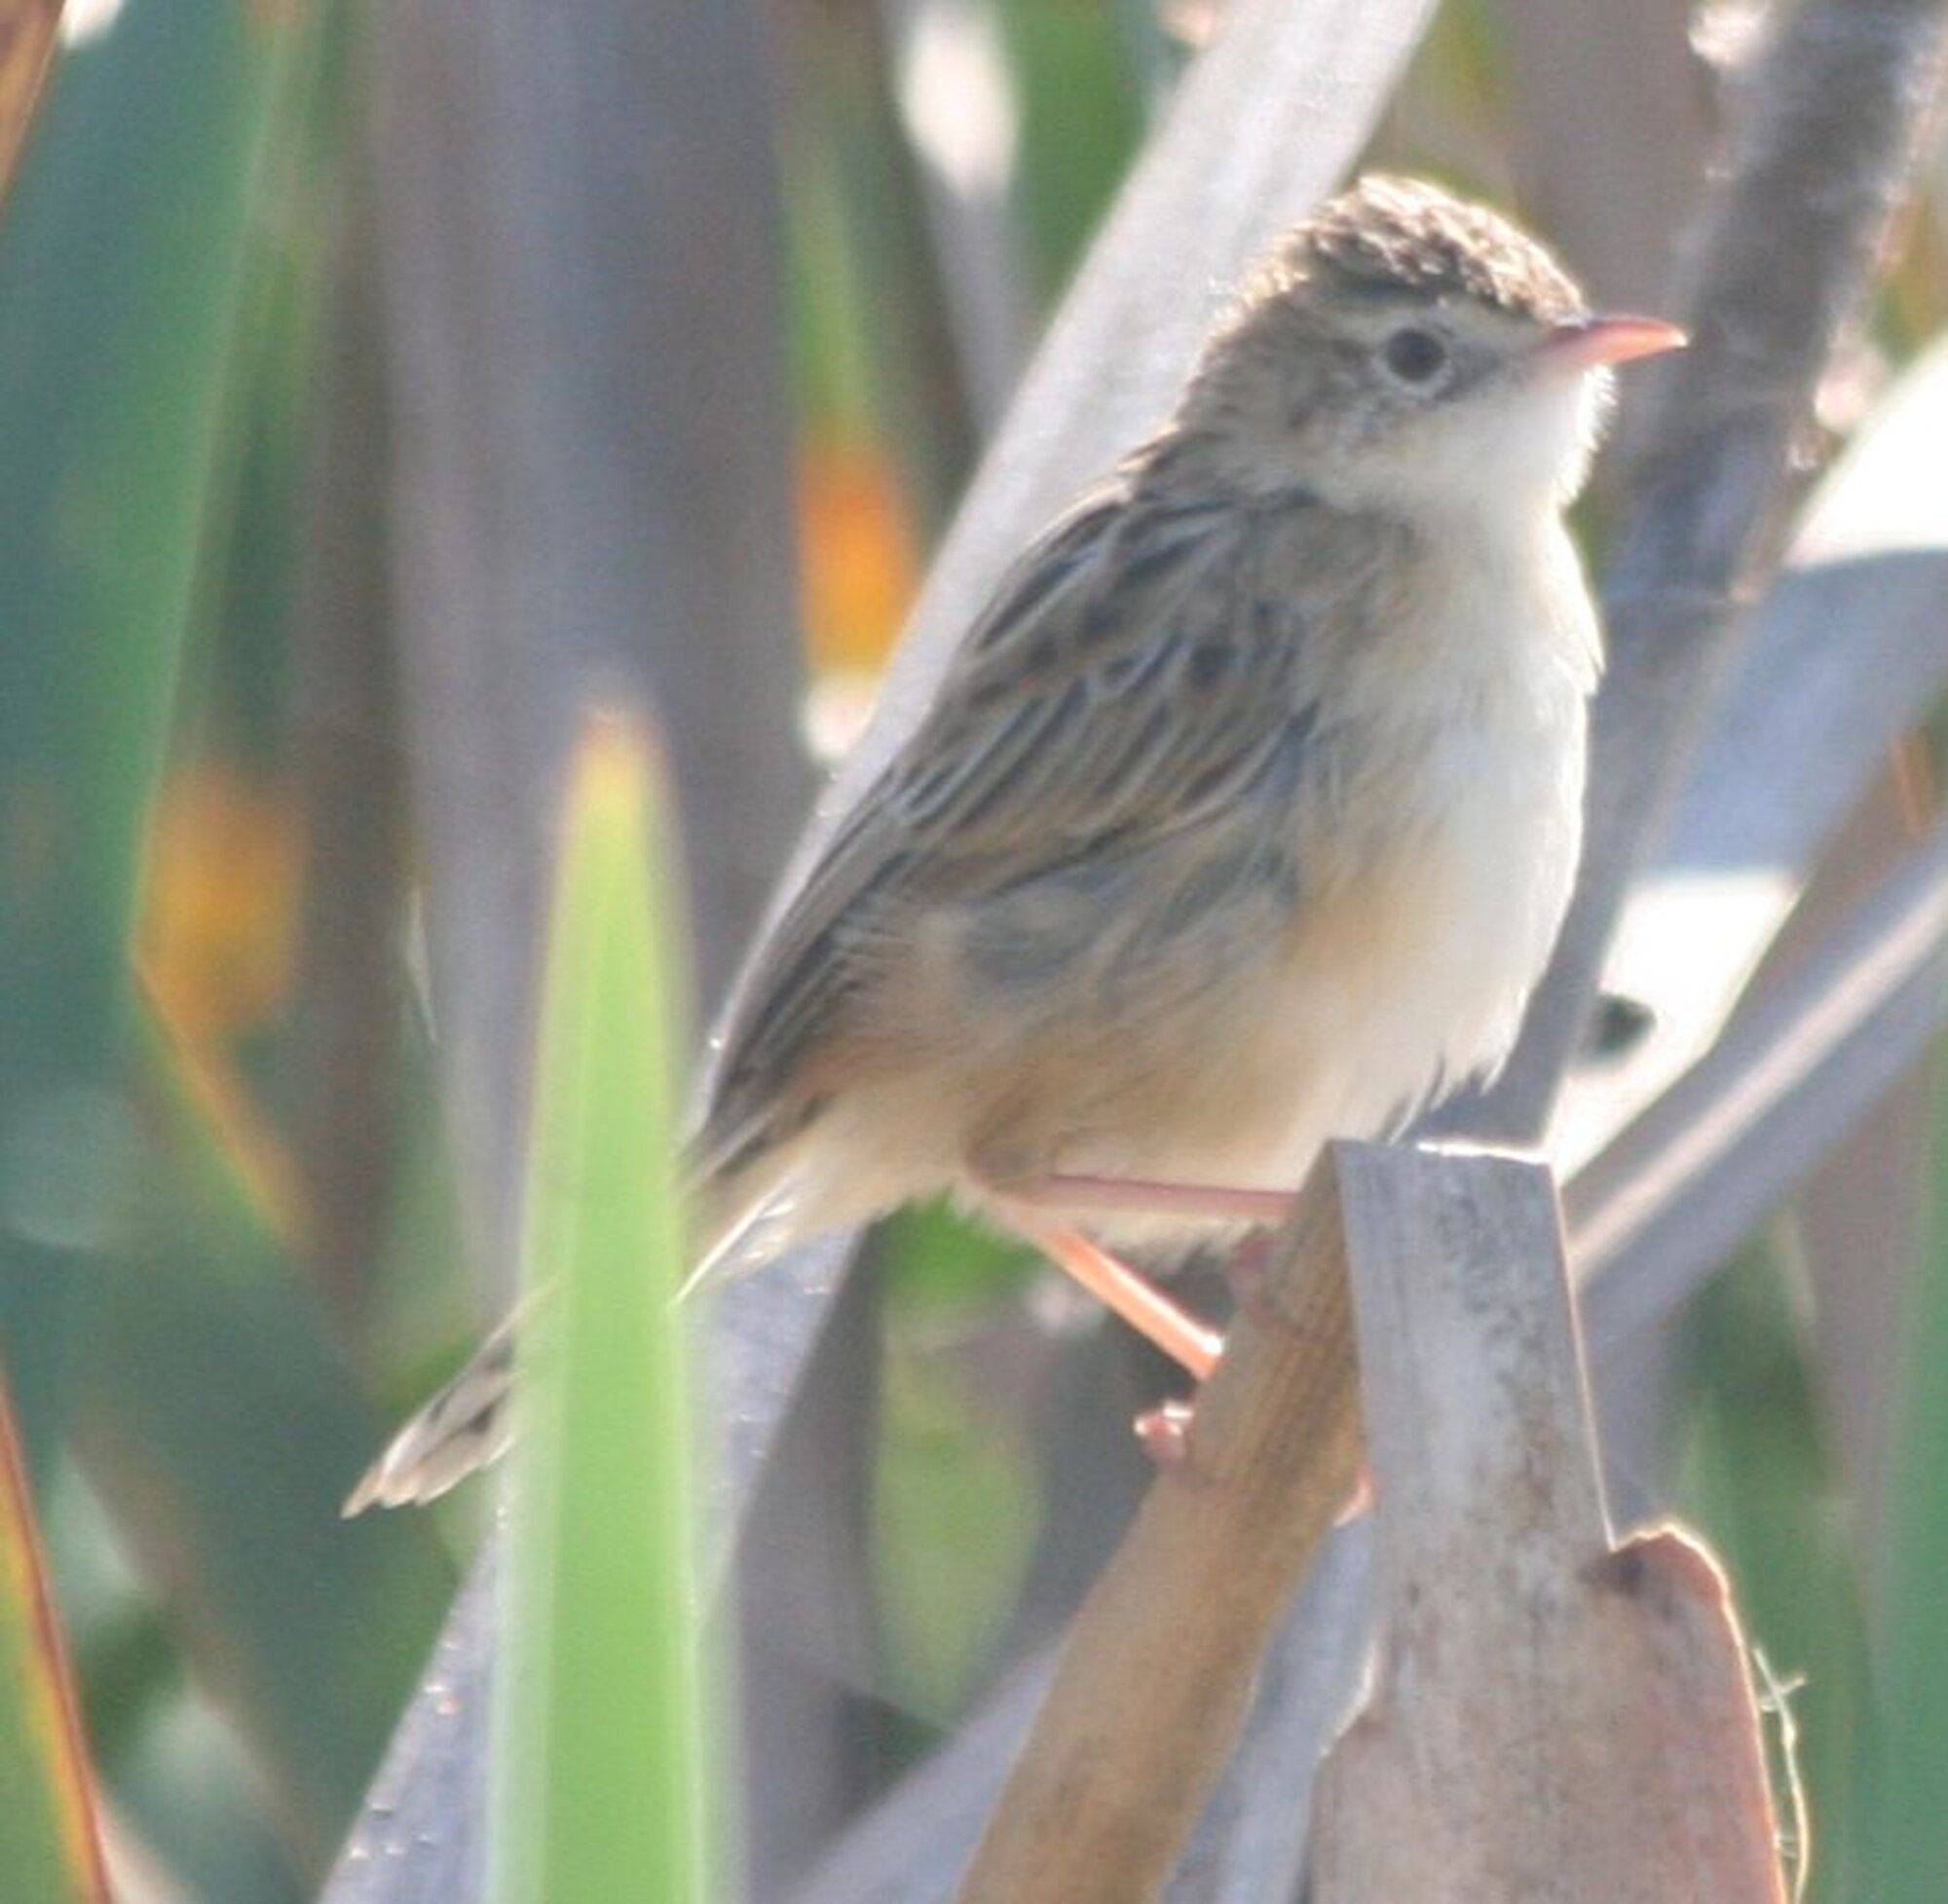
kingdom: Animalia
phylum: Chordata
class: Aves
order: Passeriformes
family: Cisticolidae
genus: Cisticola
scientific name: Cisticola juncidis
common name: Zitting cisticola
